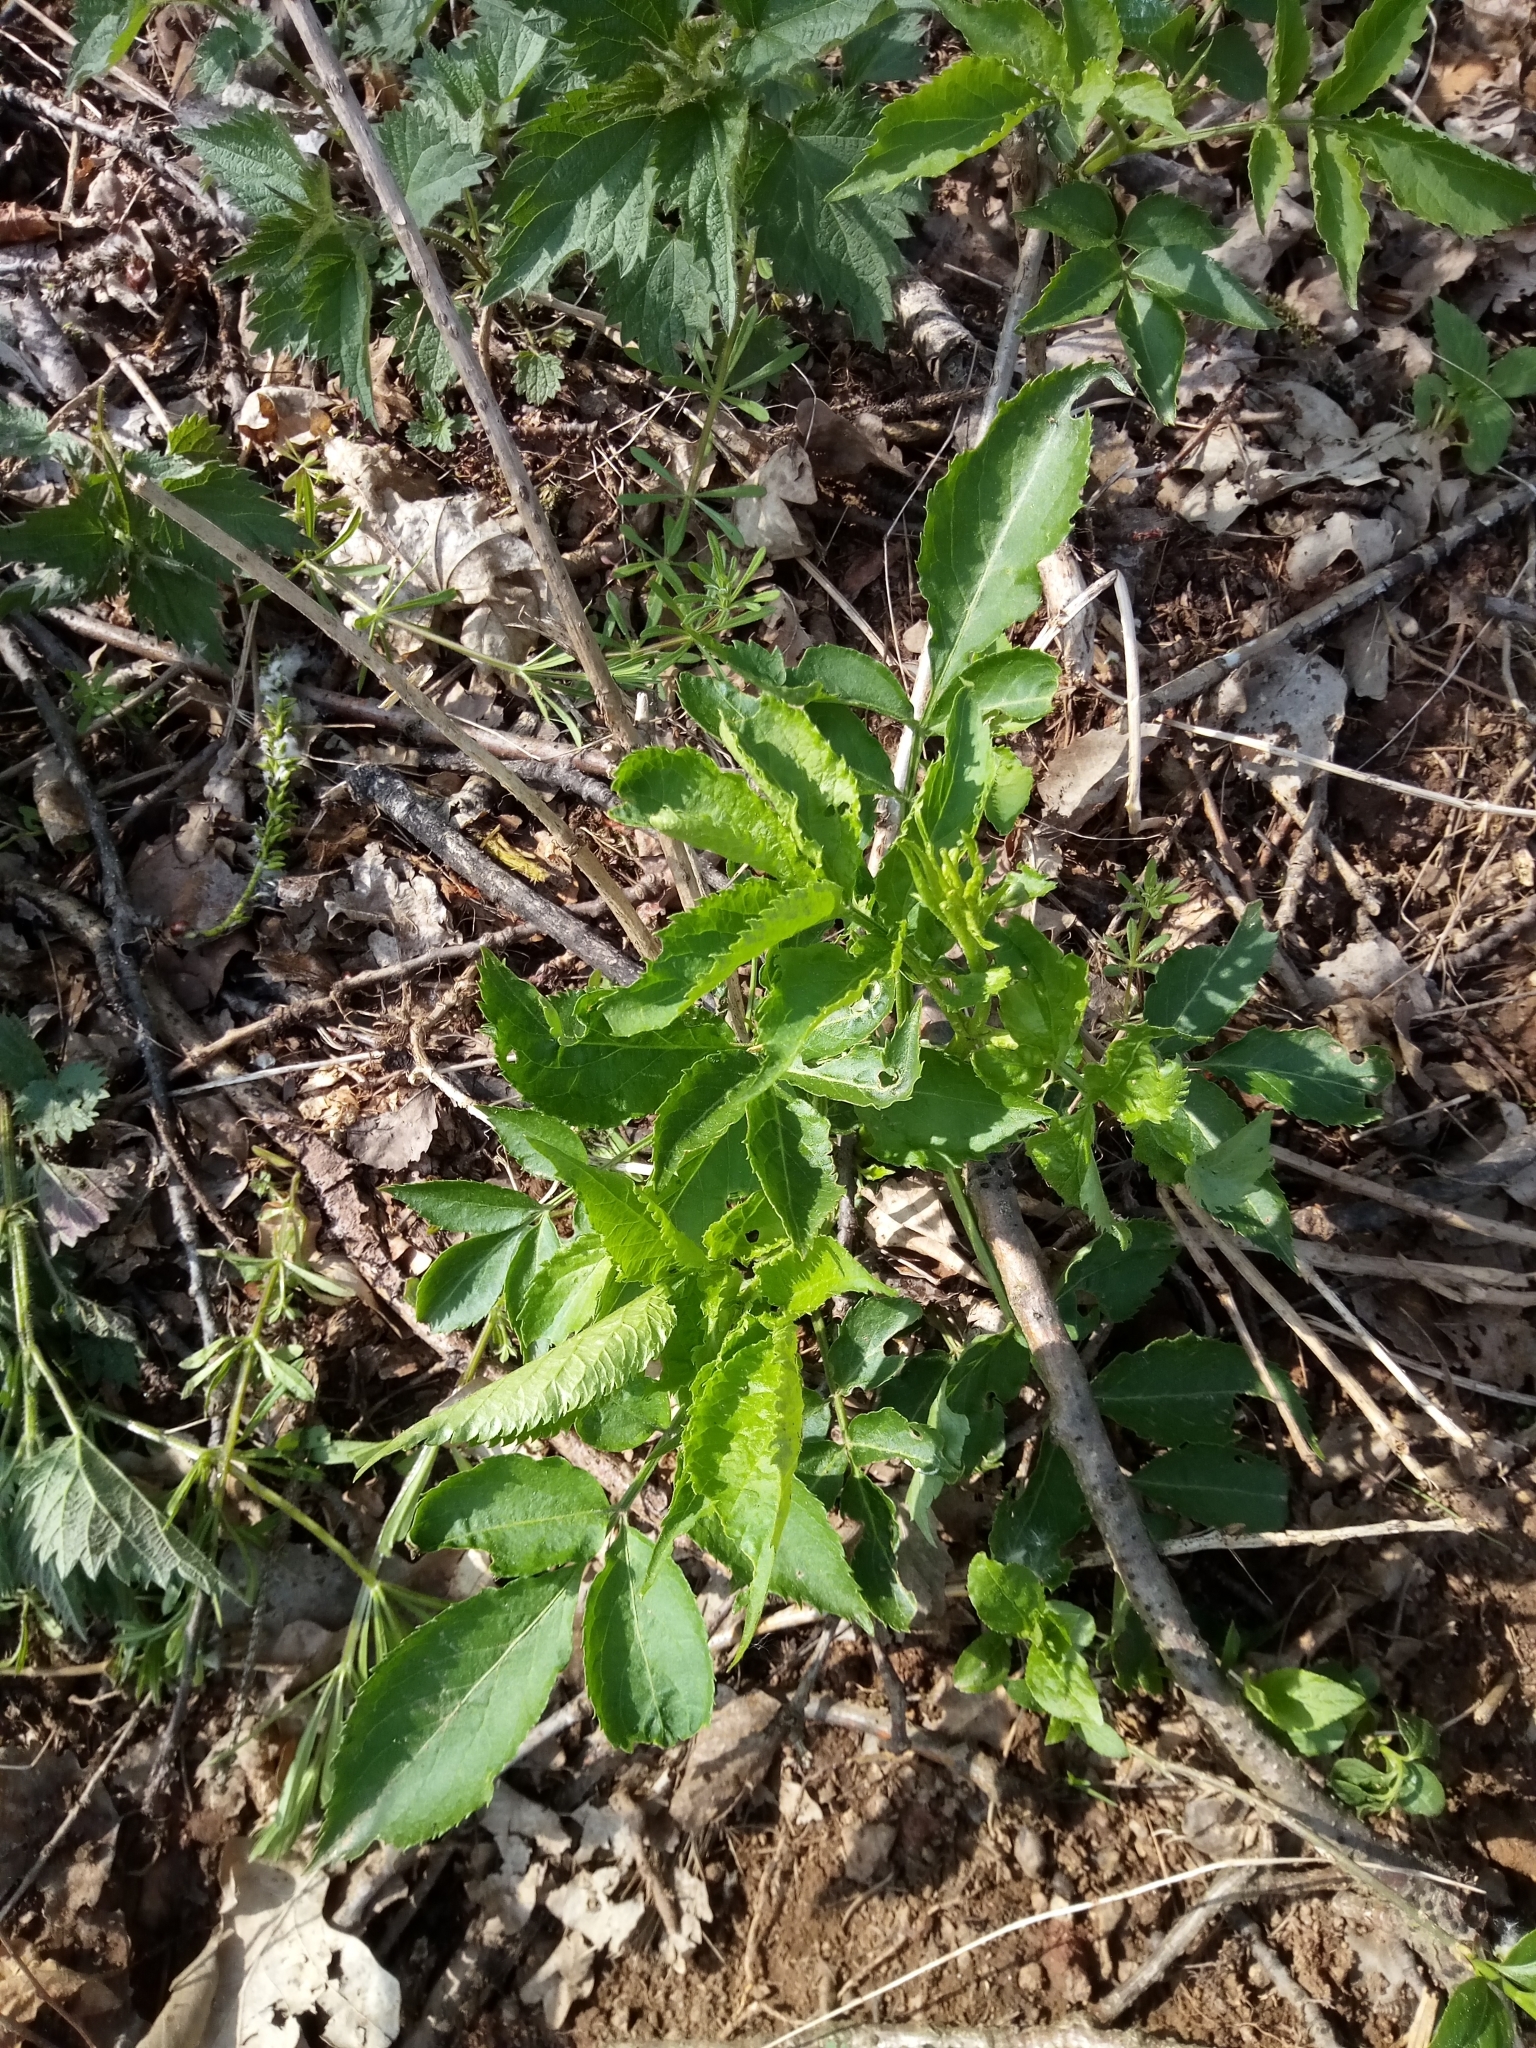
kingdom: Plantae
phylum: Tracheophyta
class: Magnoliopsida
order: Dipsacales
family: Viburnaceae
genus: Sambucus
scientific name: Sambucus nigra
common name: Elder
